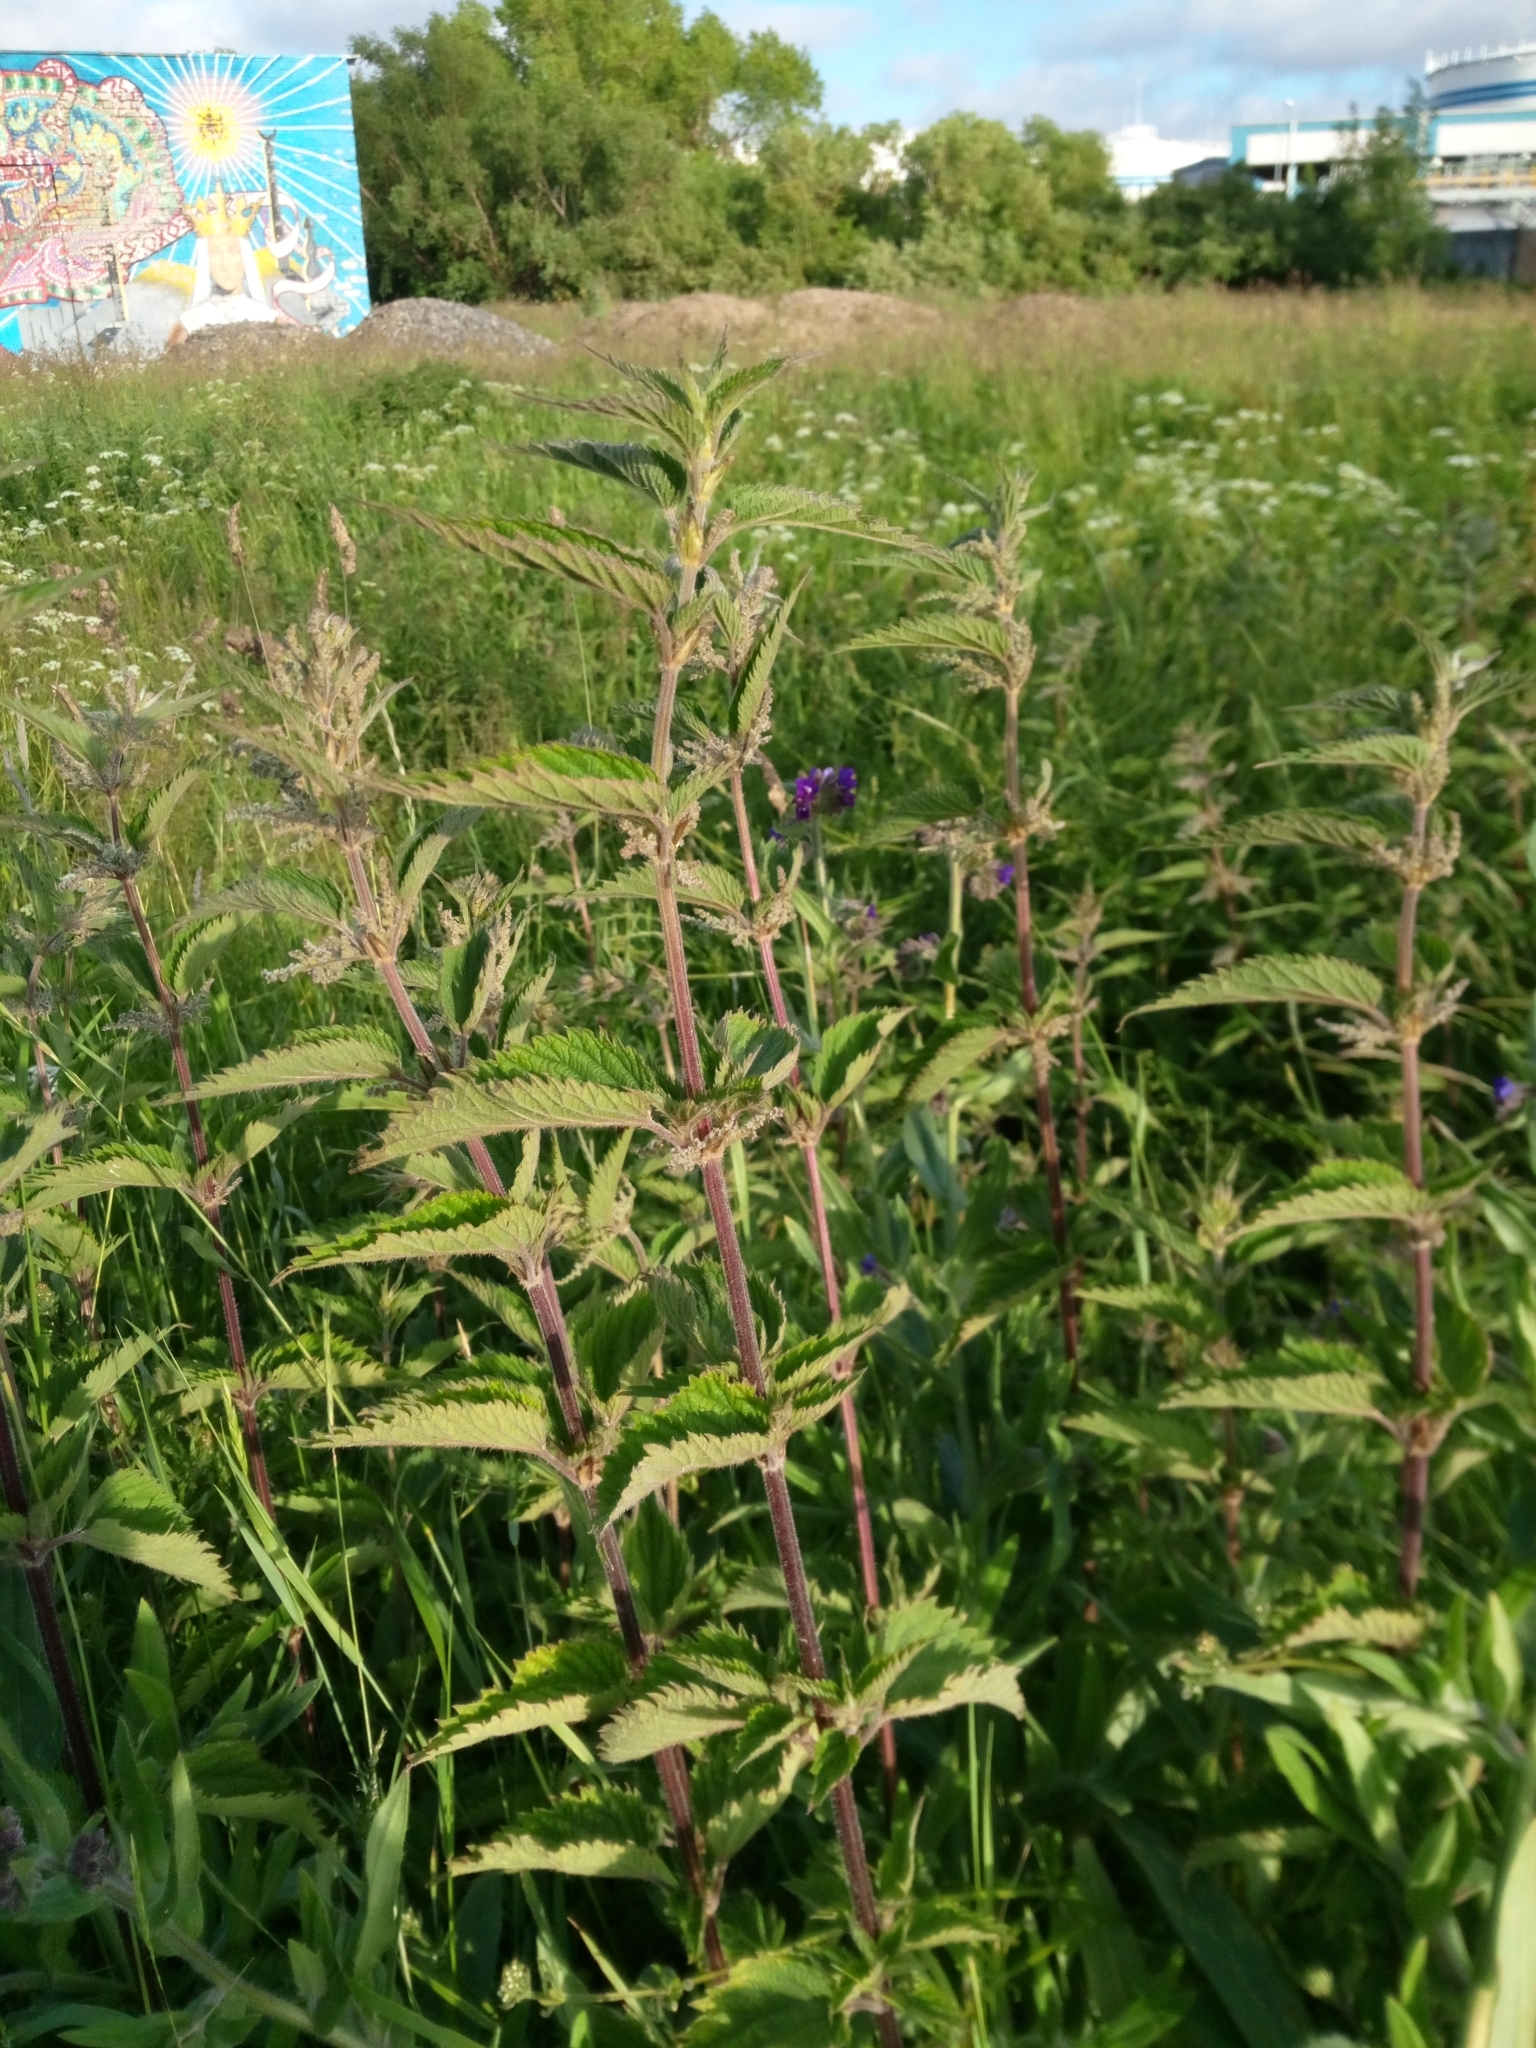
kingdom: Plantae
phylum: Tracheophyta
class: Magnoliopsida
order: Rosales
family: Urticaceae
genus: Urtica
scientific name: Urtica dioica
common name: Common nettle
